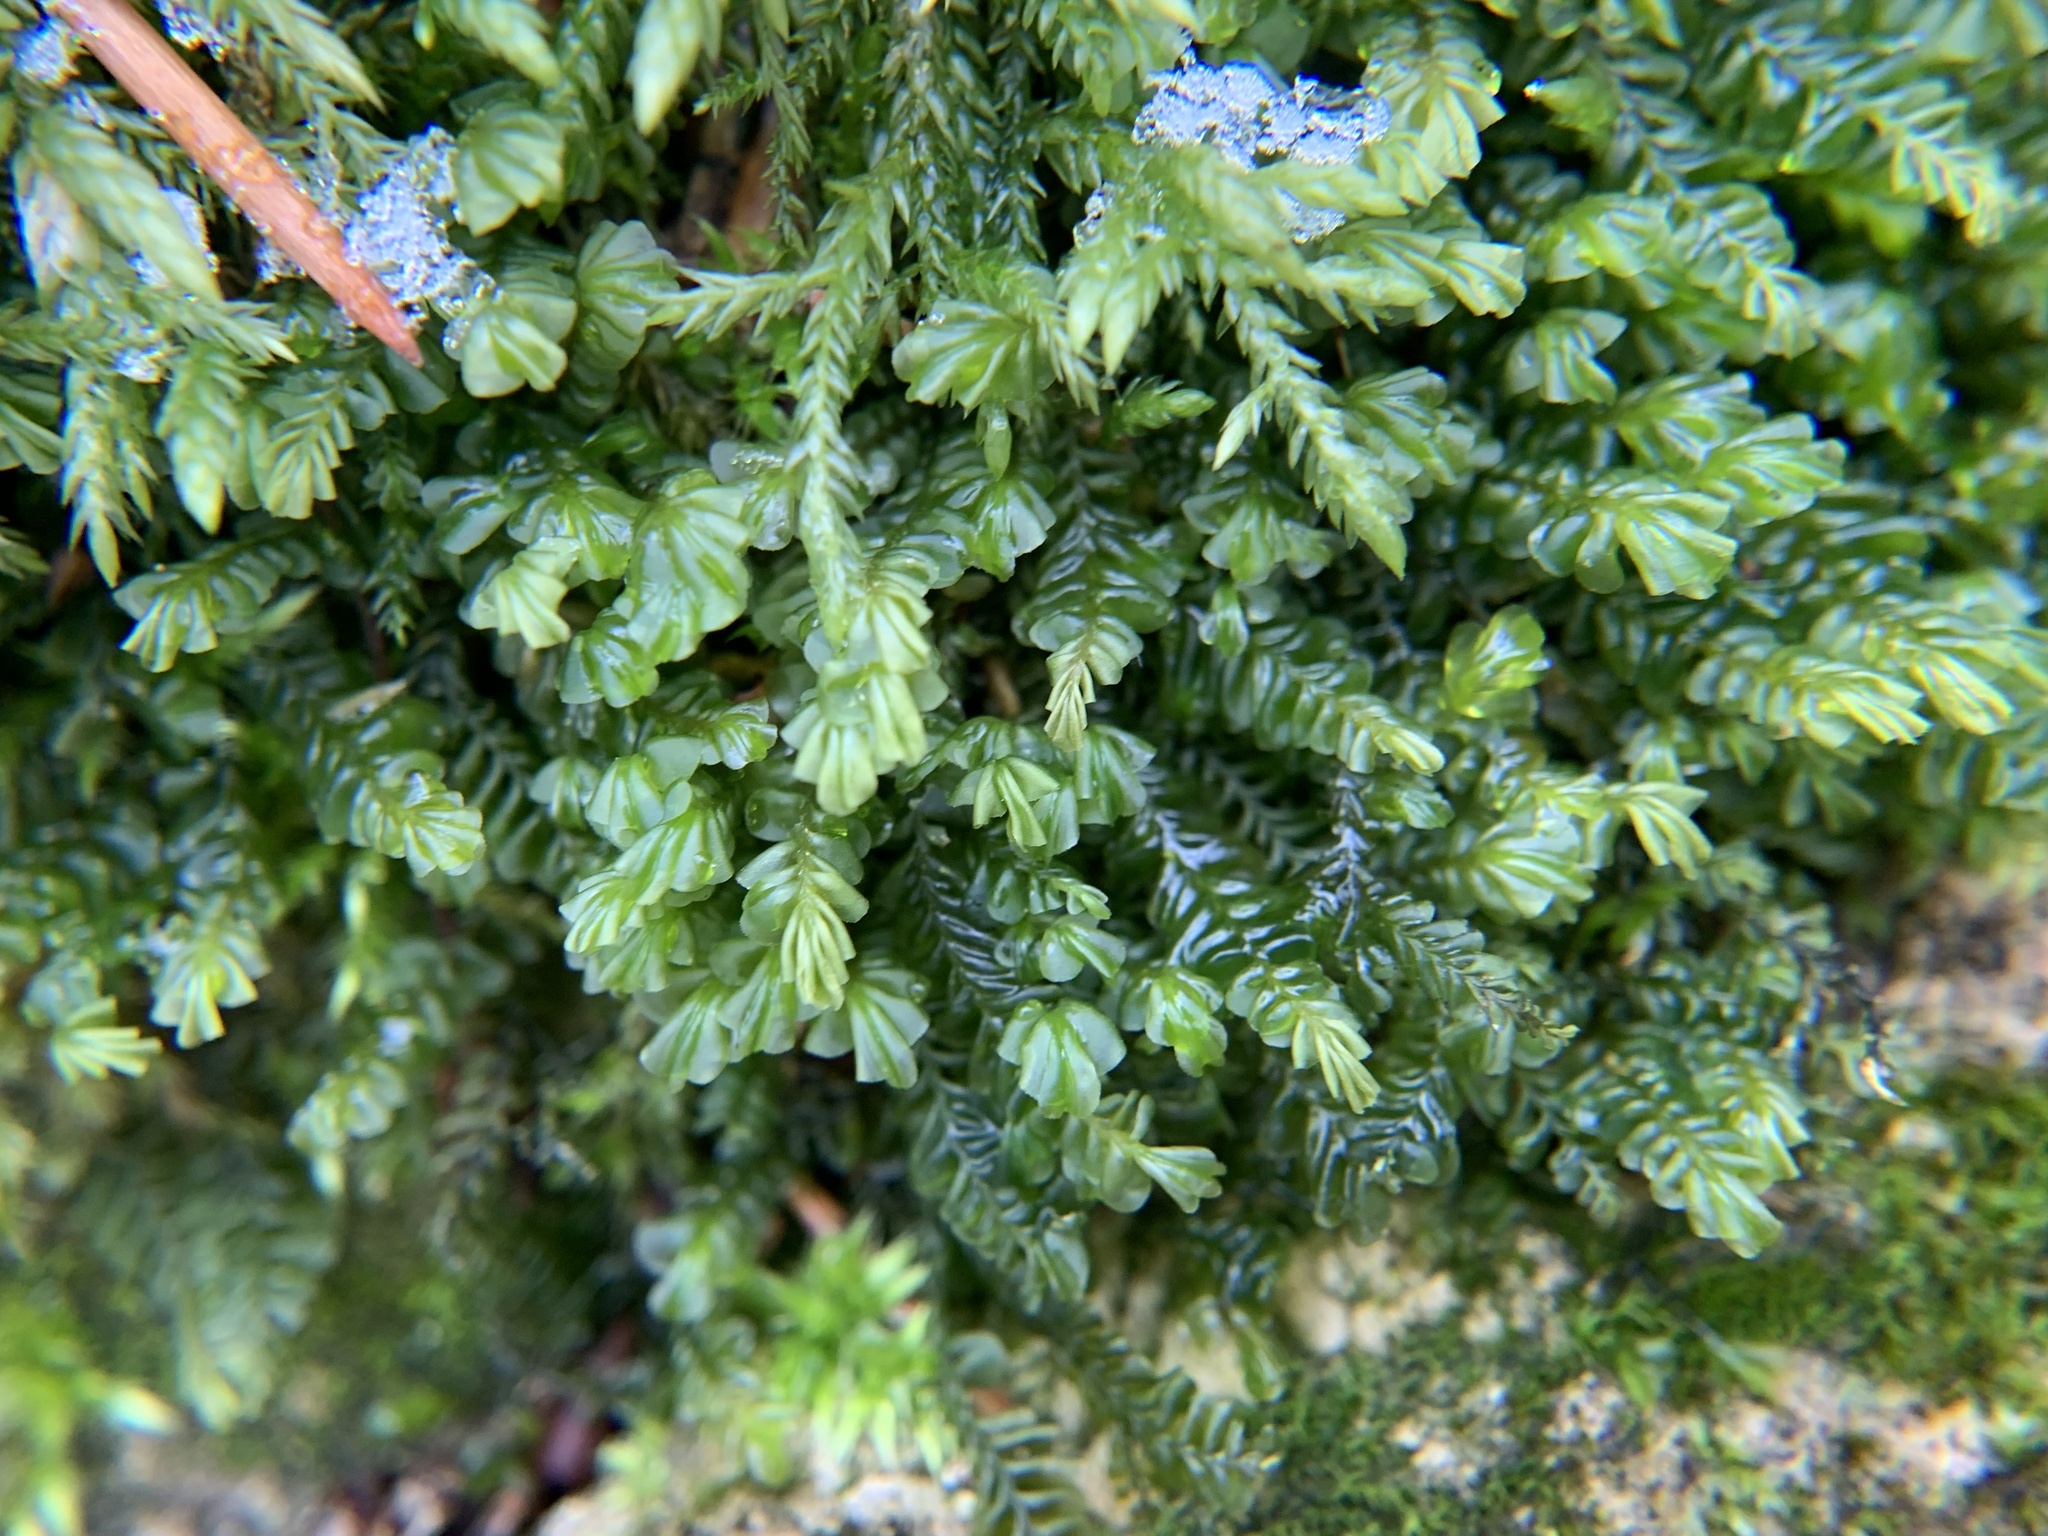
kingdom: Plantae
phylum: Marchantiophyta
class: Jungermanniopsida
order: Jungermanniales
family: Plagiochilaceae
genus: Plagiochila
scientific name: Plagiochila porelloides
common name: Lesser featherwort
